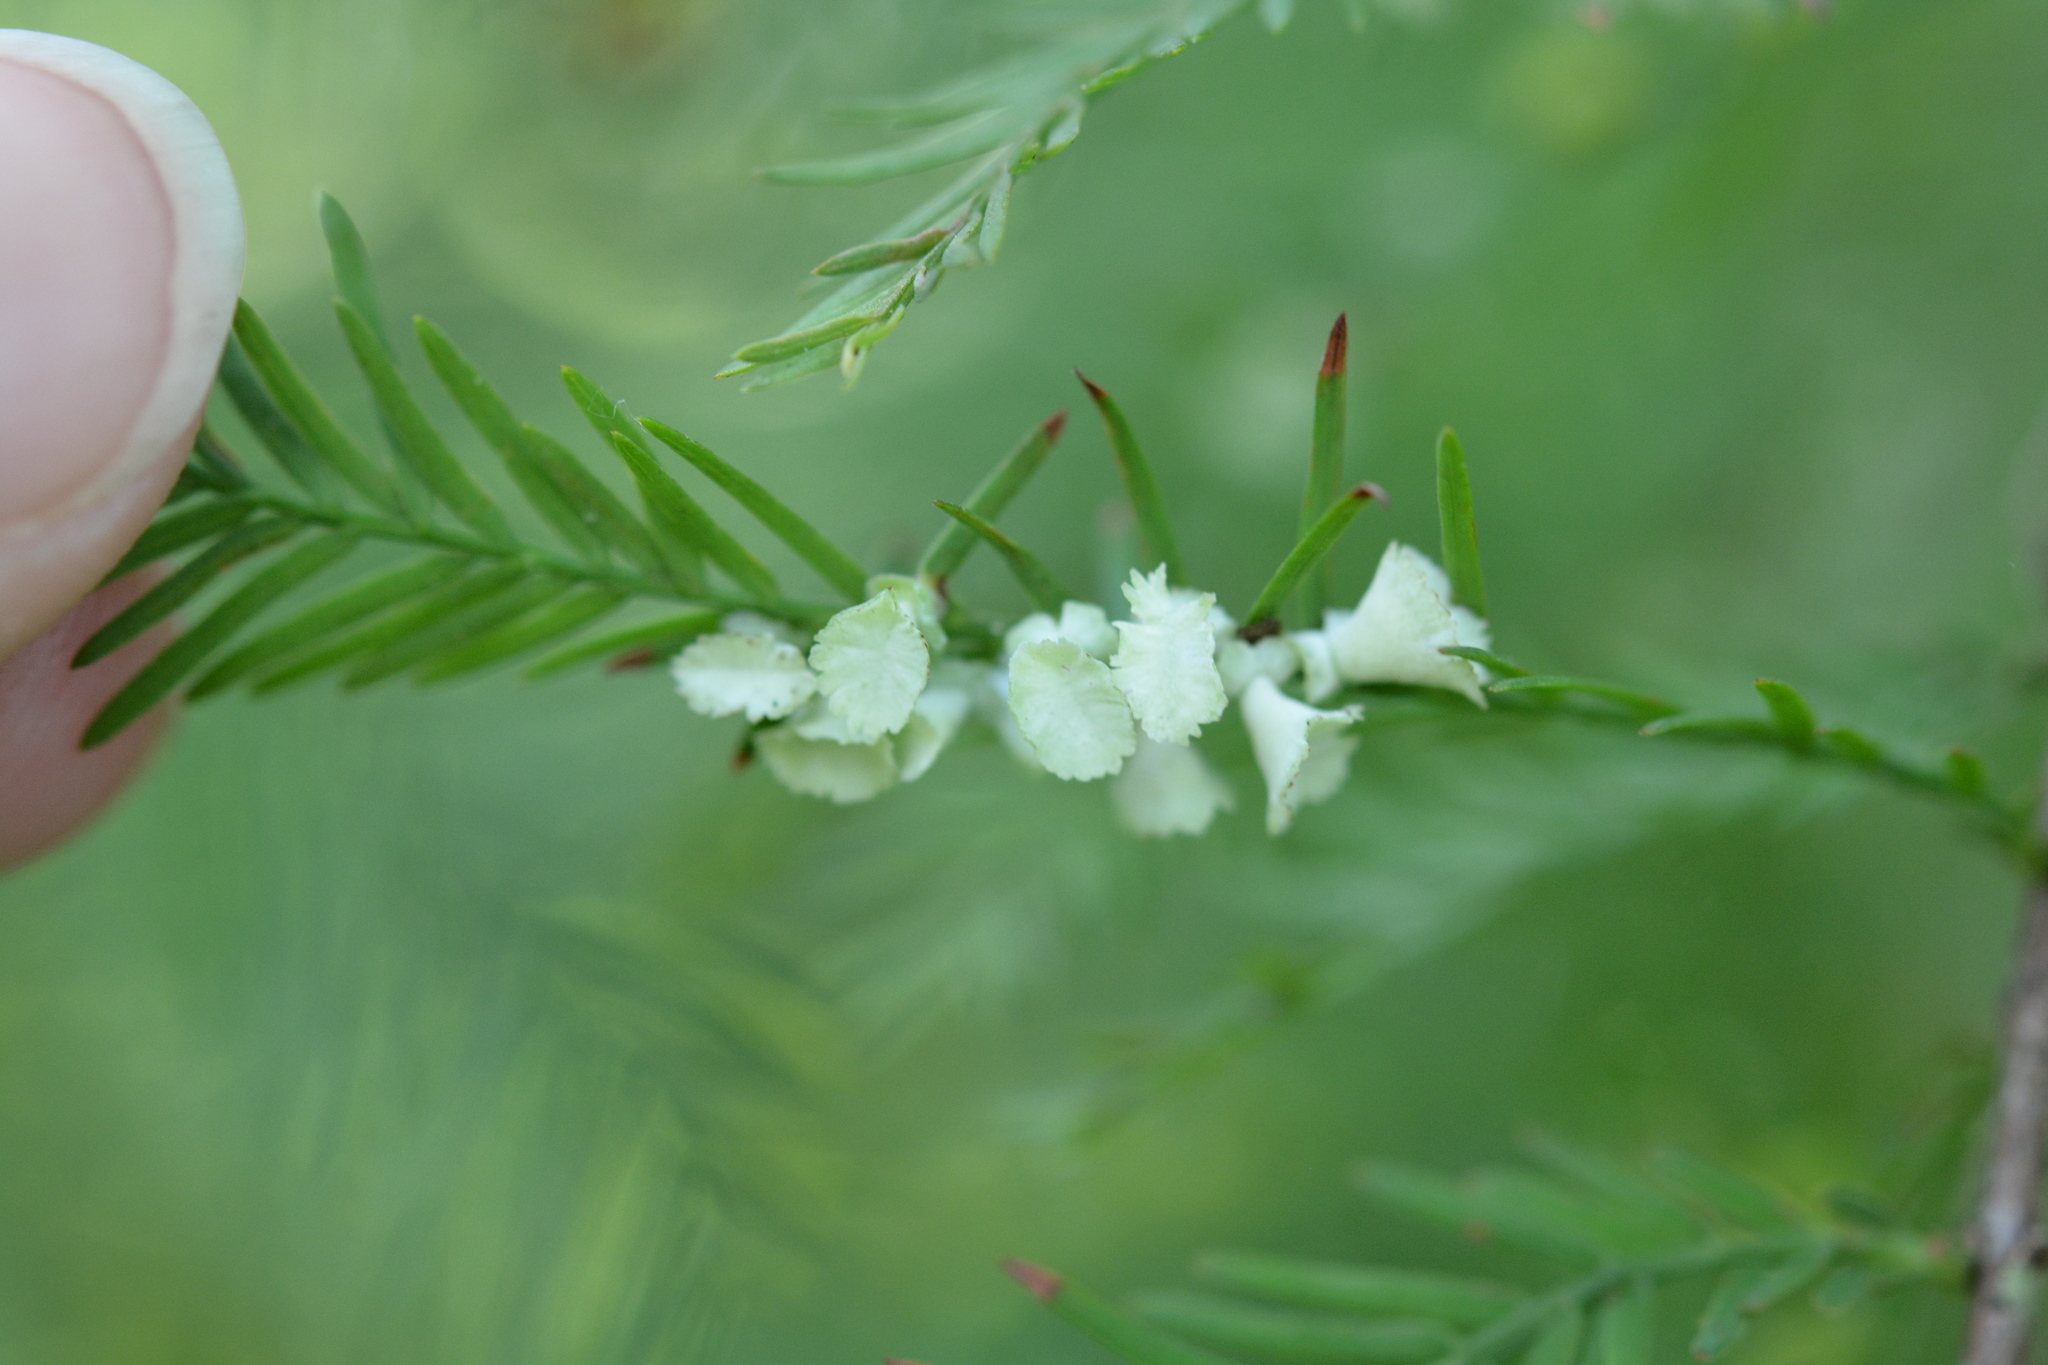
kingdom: Animalia
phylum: Arthropoda
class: Insecta
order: Diptera
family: Cecidomyiidae
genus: Taxodiomyia
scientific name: Taxodiomyia cupressi
